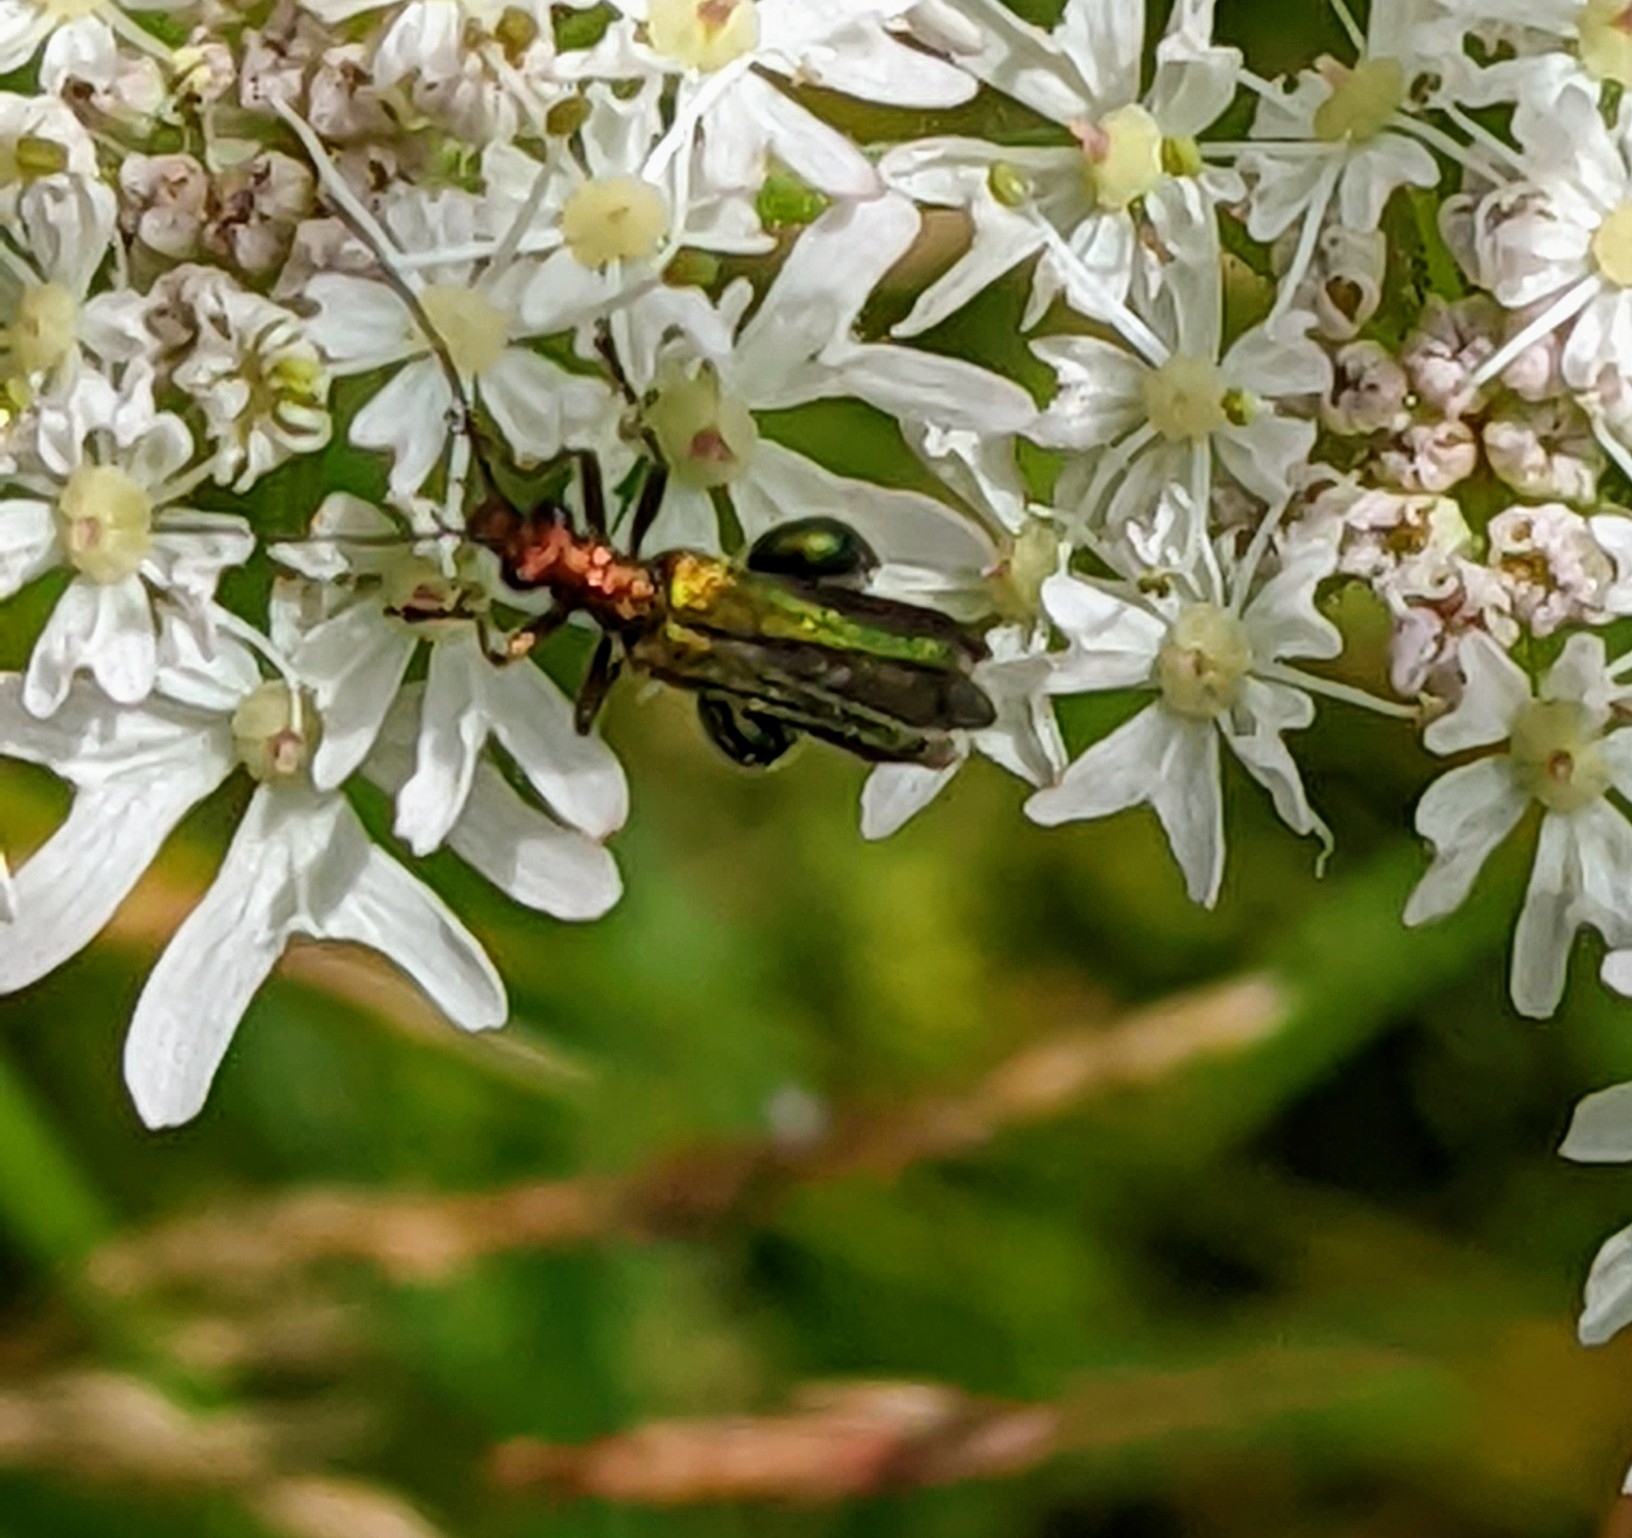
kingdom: Animalia
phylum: Arthropoda
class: Insecta
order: Coleoptera
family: Oedemeridae
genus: Oedemera
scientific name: Oedemera nobilis
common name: Swollen-thighed beetle
